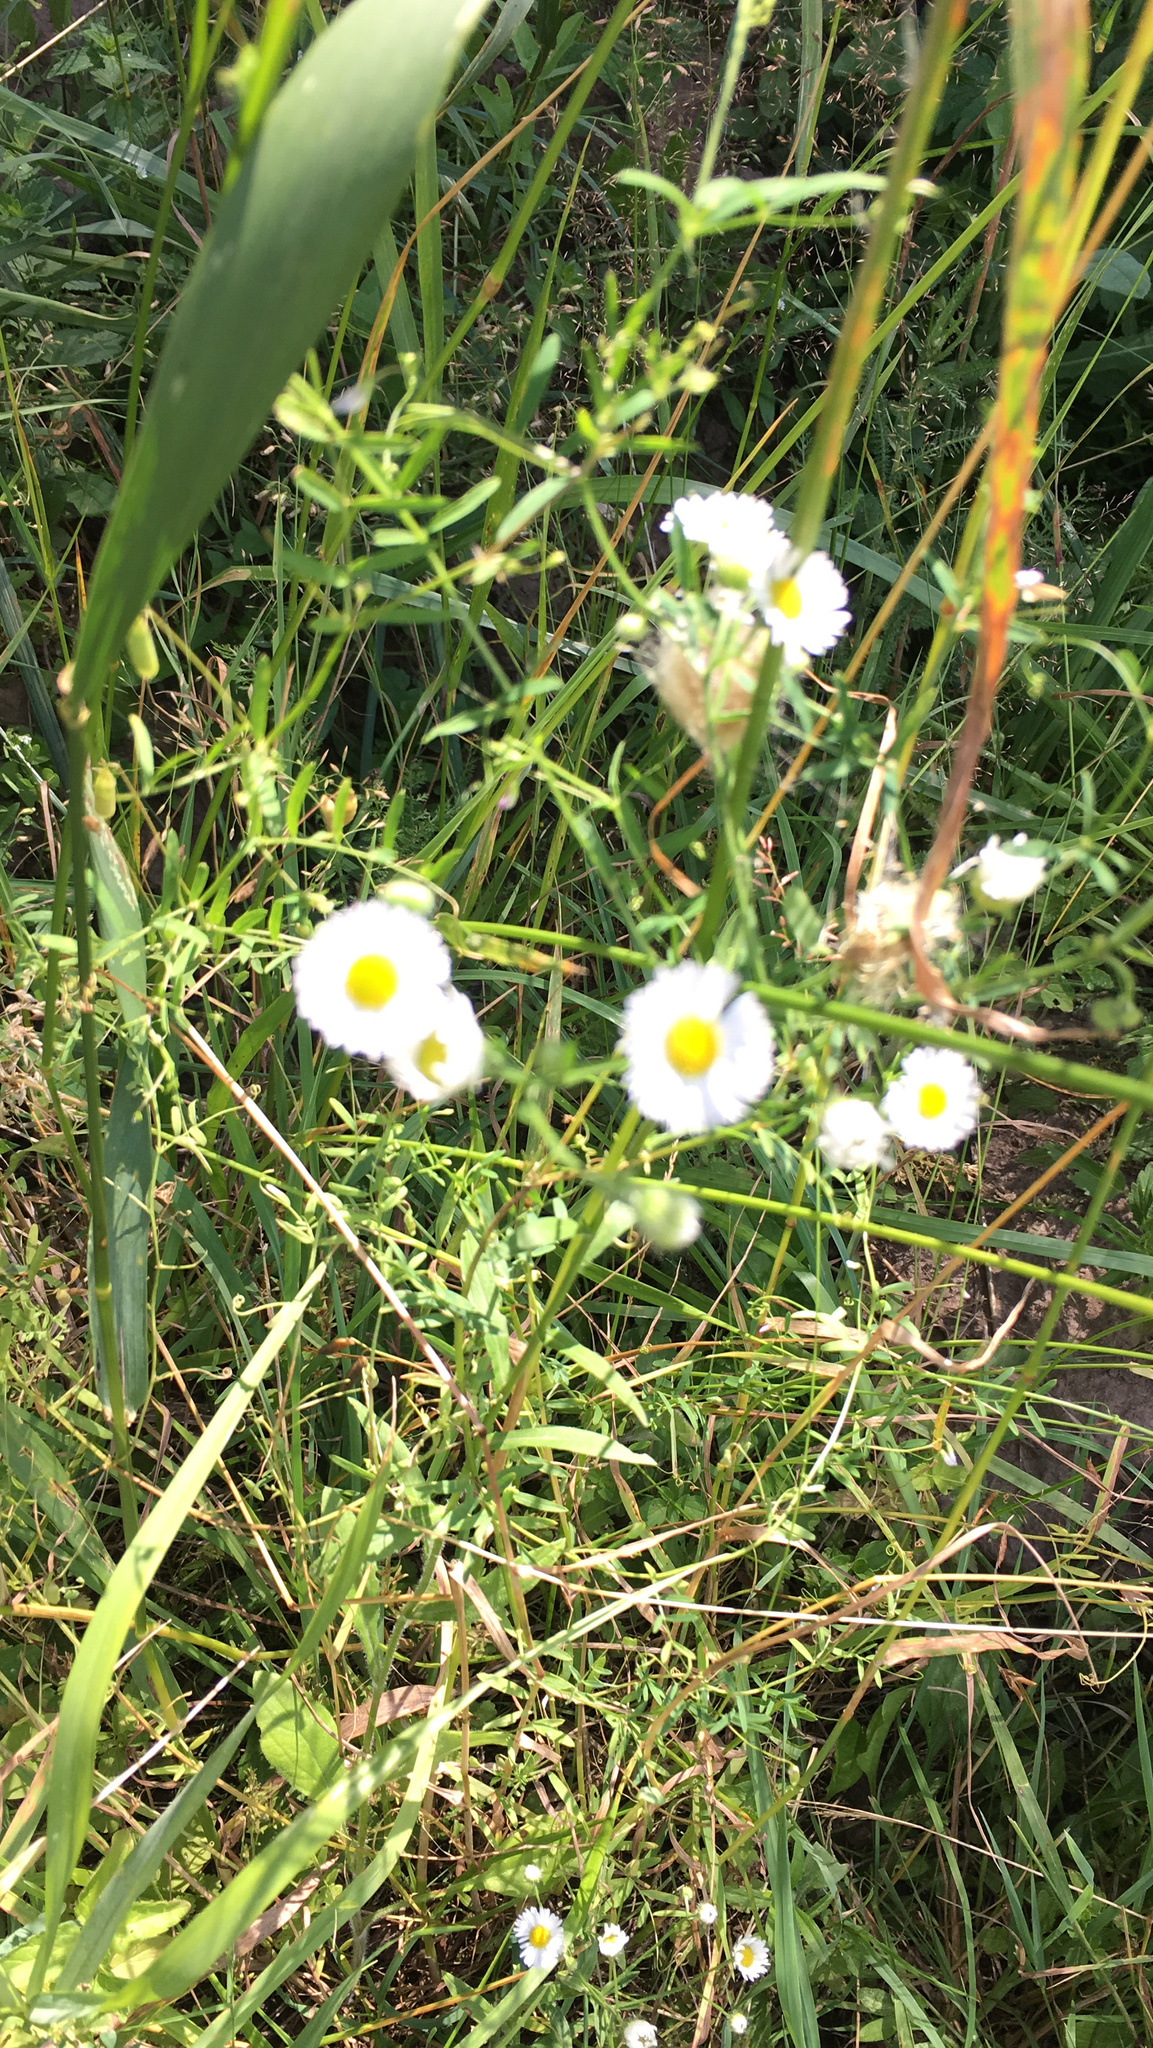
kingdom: Plantae
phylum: Tracheophyta
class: Magnoliopsida
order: Asterales
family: Asteraceae
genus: Erigeron
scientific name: Erigeron strigosus
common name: Common eastern fleabane
